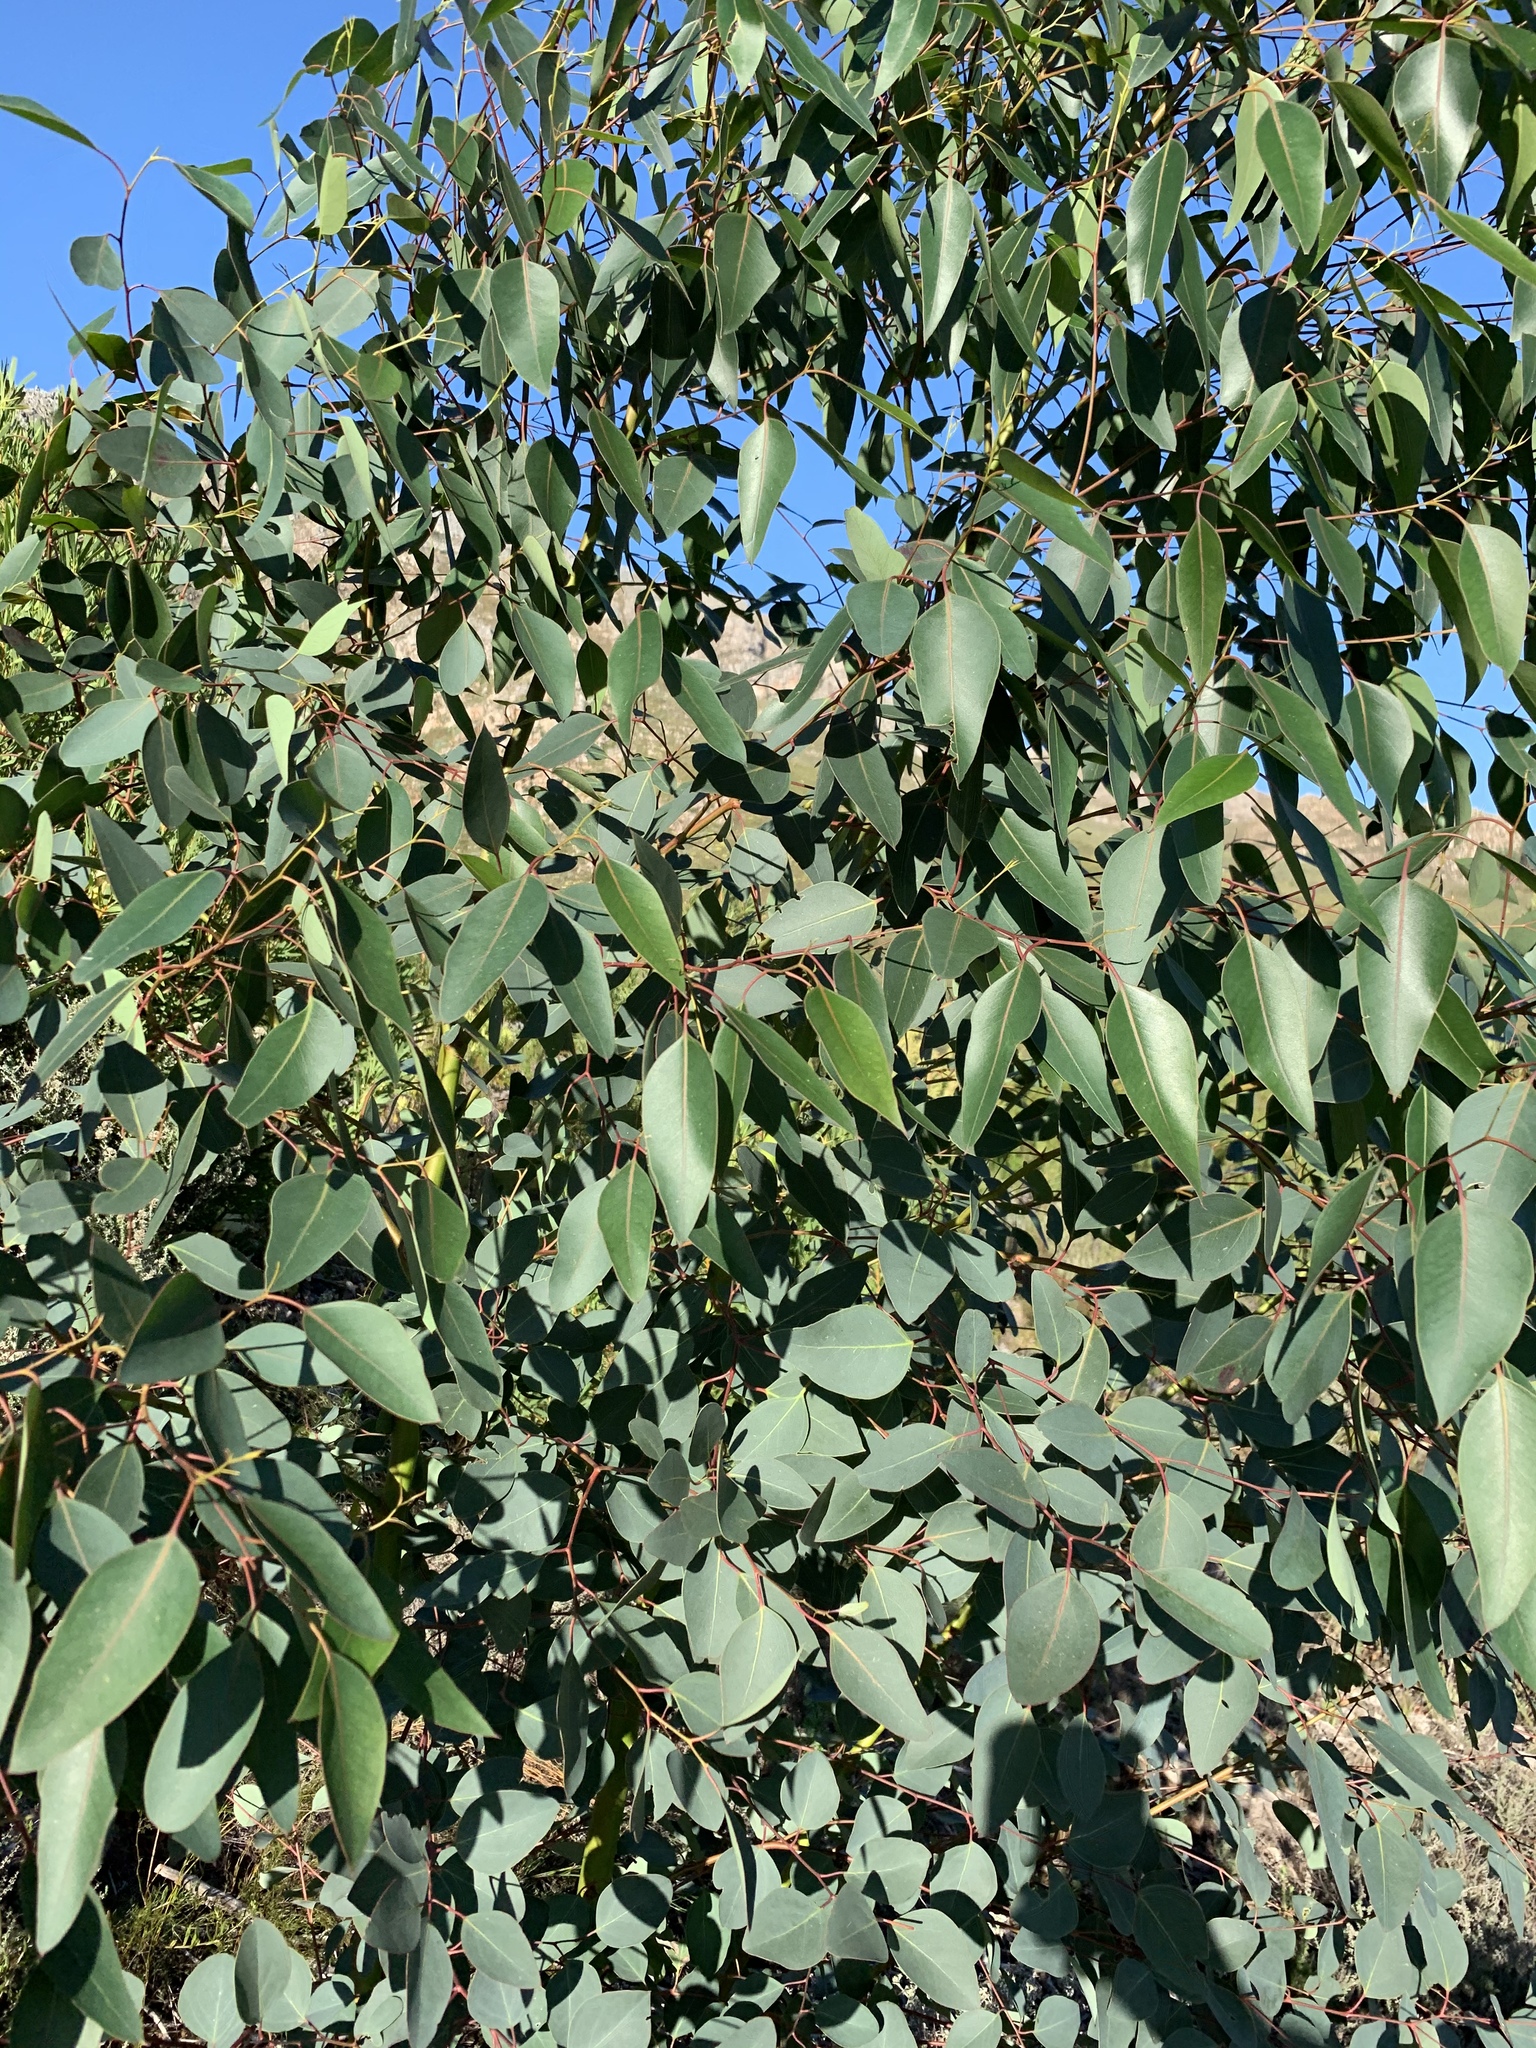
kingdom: Plantae
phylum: Tracheophyta
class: Magnoliopsida
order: Myrtales
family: Myrtaceae
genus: Eucalyptus
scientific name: Eucalyptus cladocalyx
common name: Sugargum
